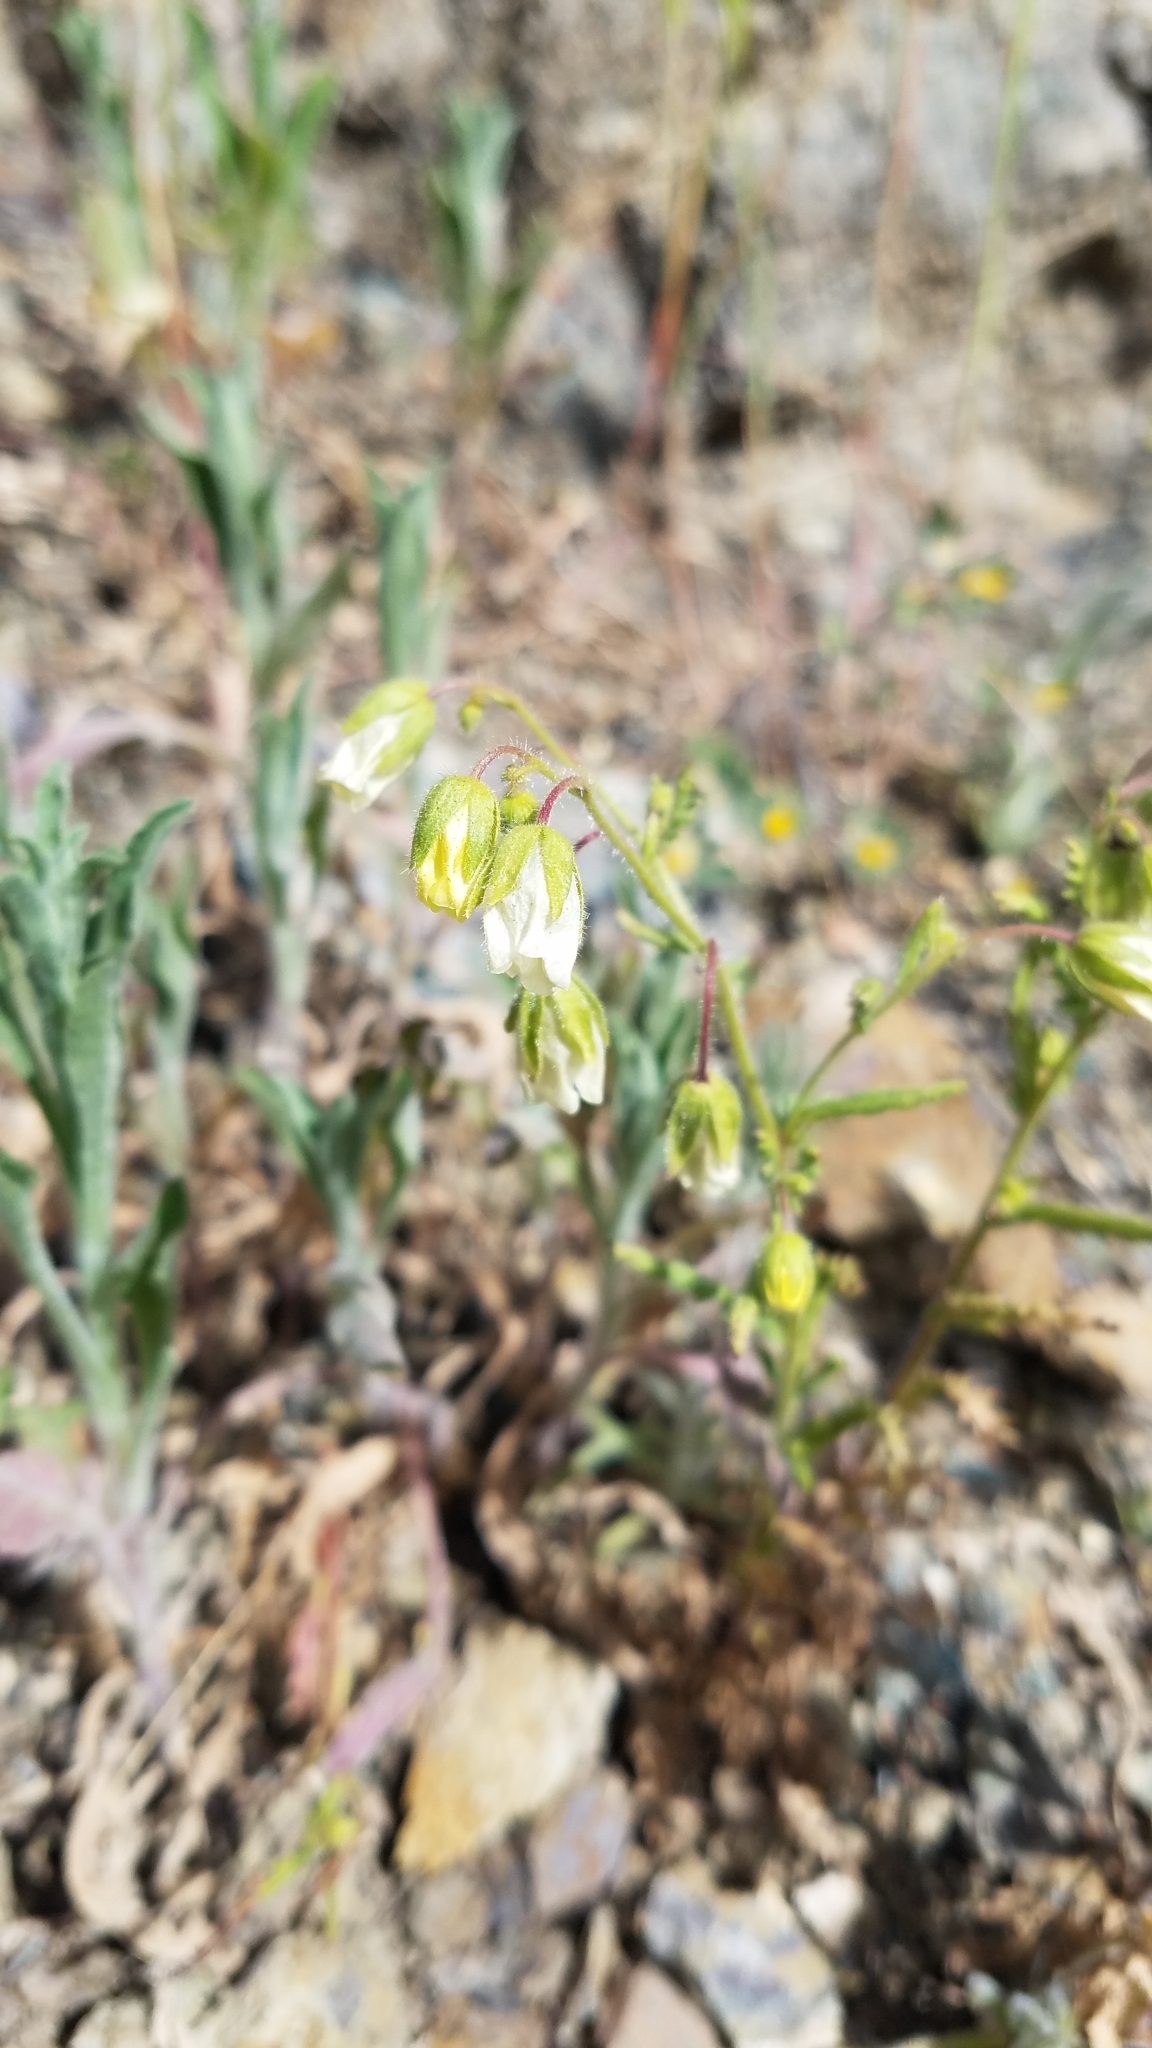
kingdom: Plantae
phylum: Tracheophyta
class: Magnoliopsida
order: Boraginales
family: Hydrophyllaceae
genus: Emmenanthe
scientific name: Emmenanthe penduliflora
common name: Whispering-bells
